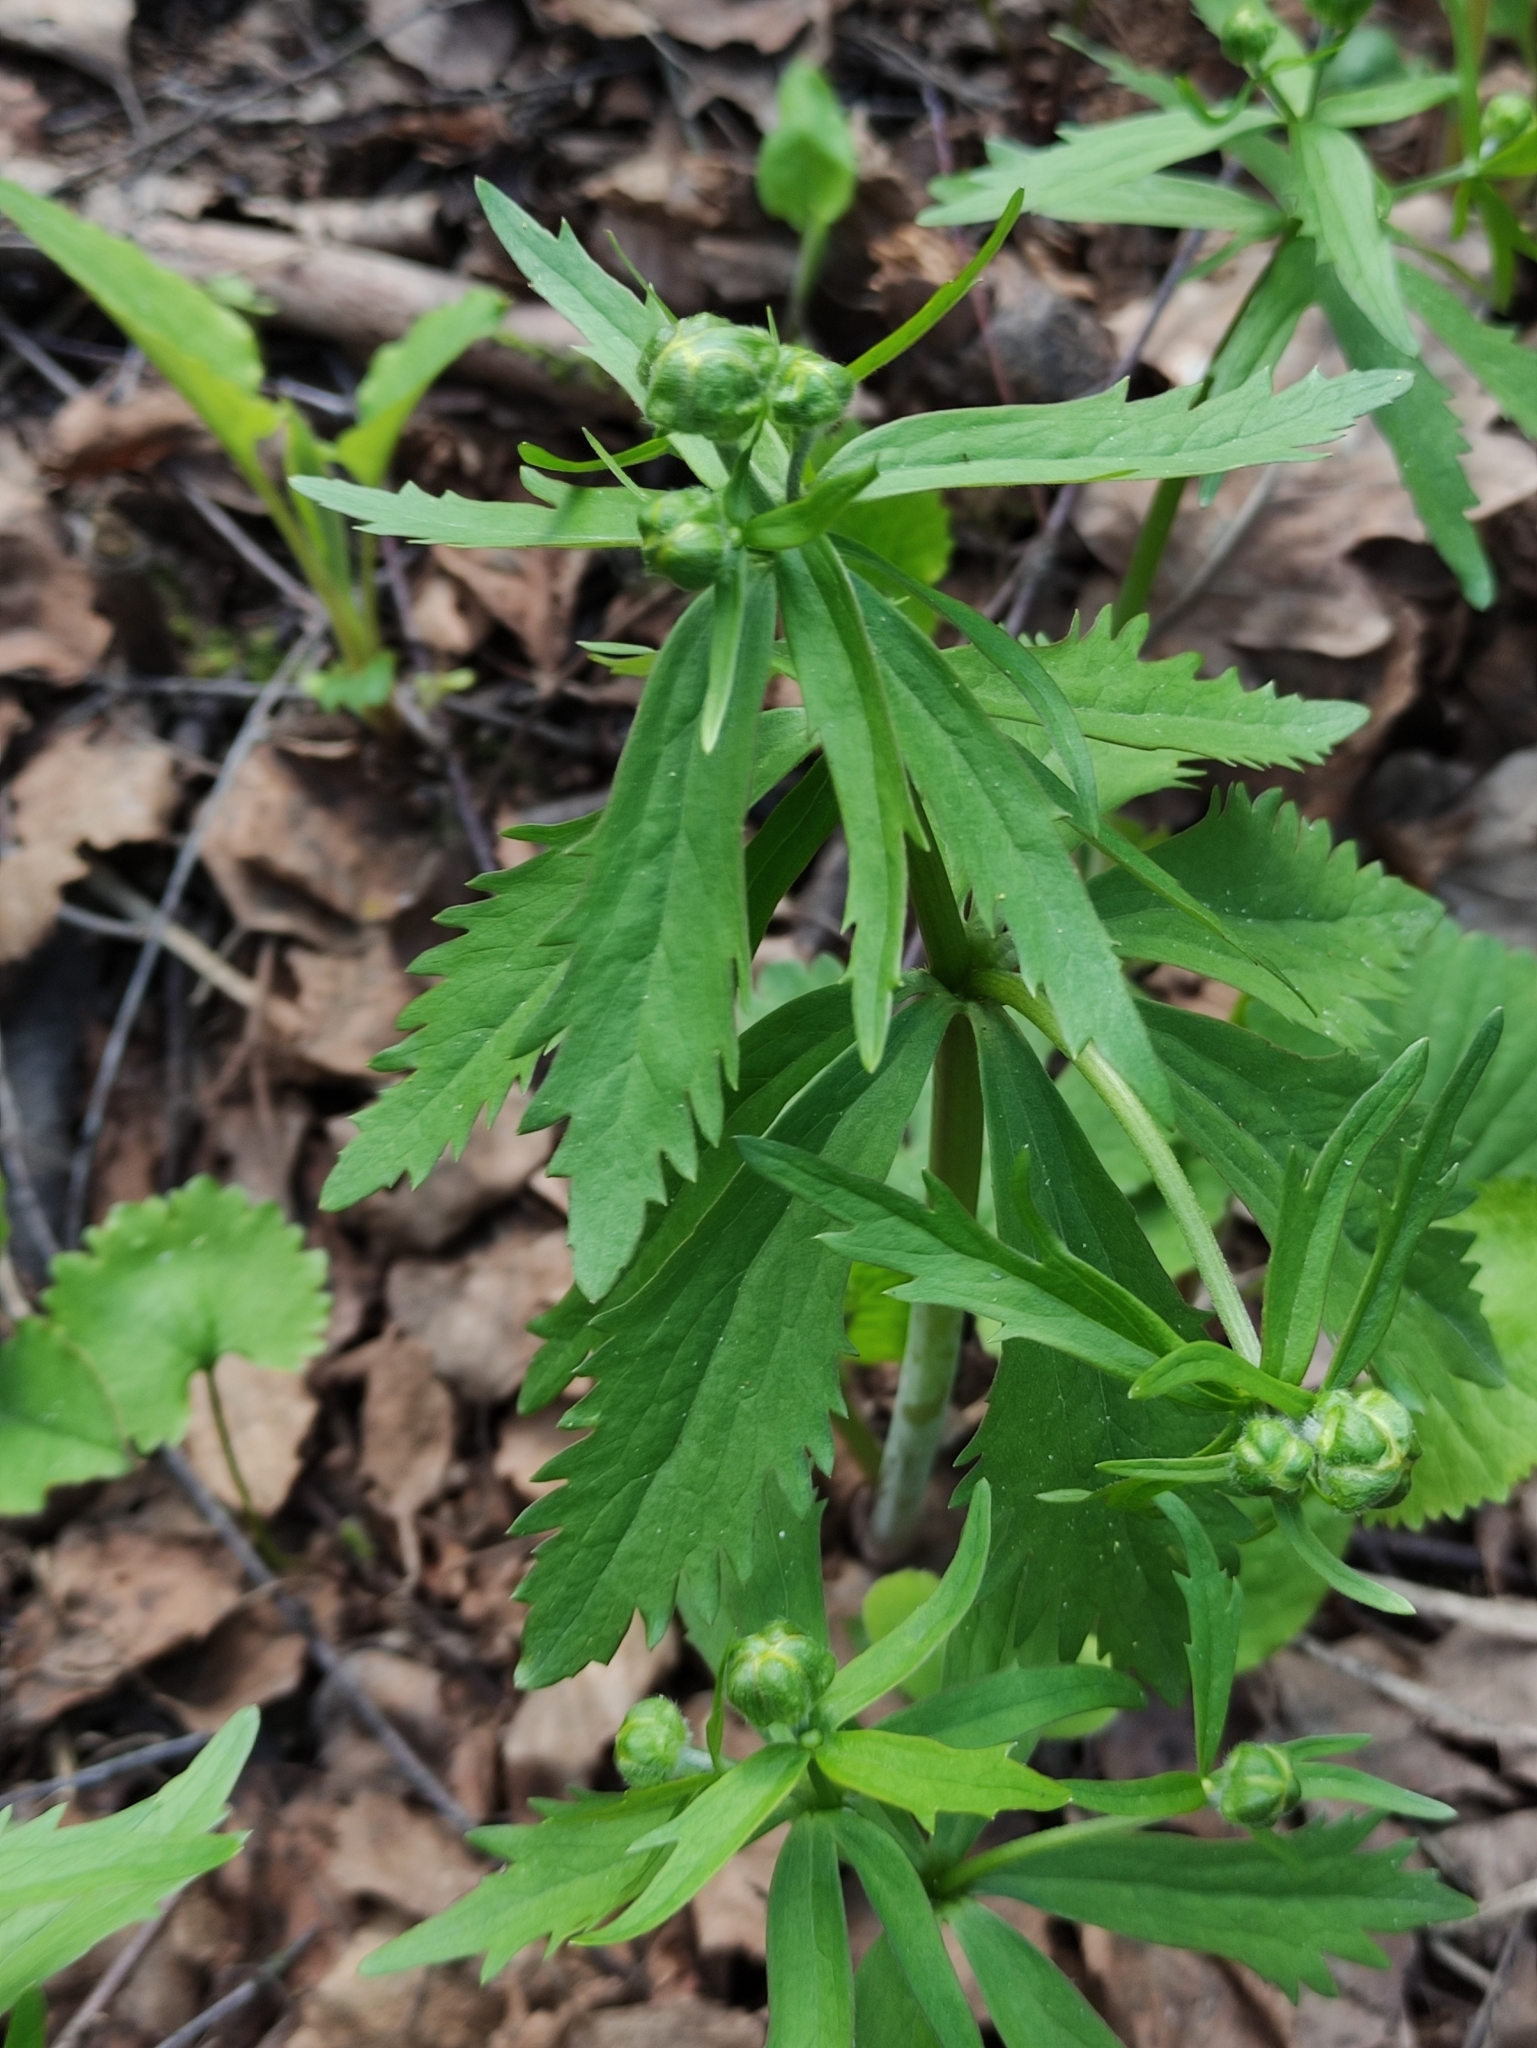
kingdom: Plantae
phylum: Tracheophyta
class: Magnoliopsida
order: Ranunculales
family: Ranunculaceae
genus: Ranunculus
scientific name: Ranunculus cassubicus
